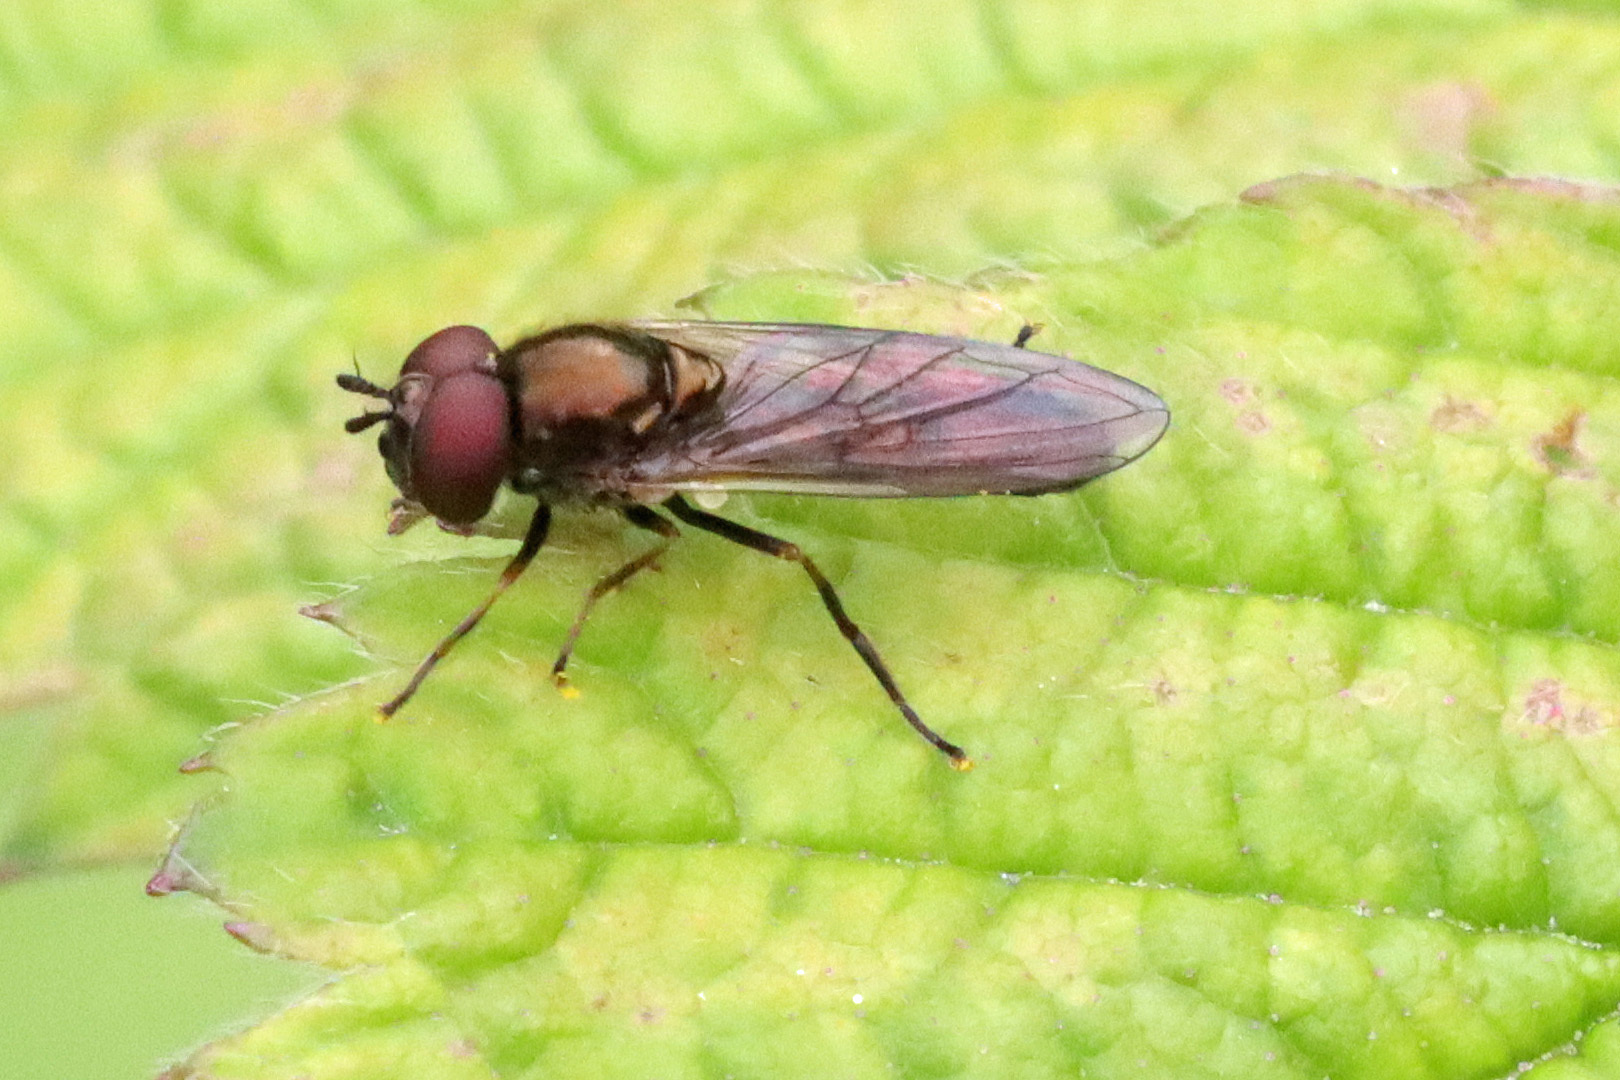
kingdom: Animalia
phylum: Arthropoda
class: Insecta
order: Diptera
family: Syrphidae
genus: Melanostoma
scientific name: Melanostoma mellina
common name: Hover fly
